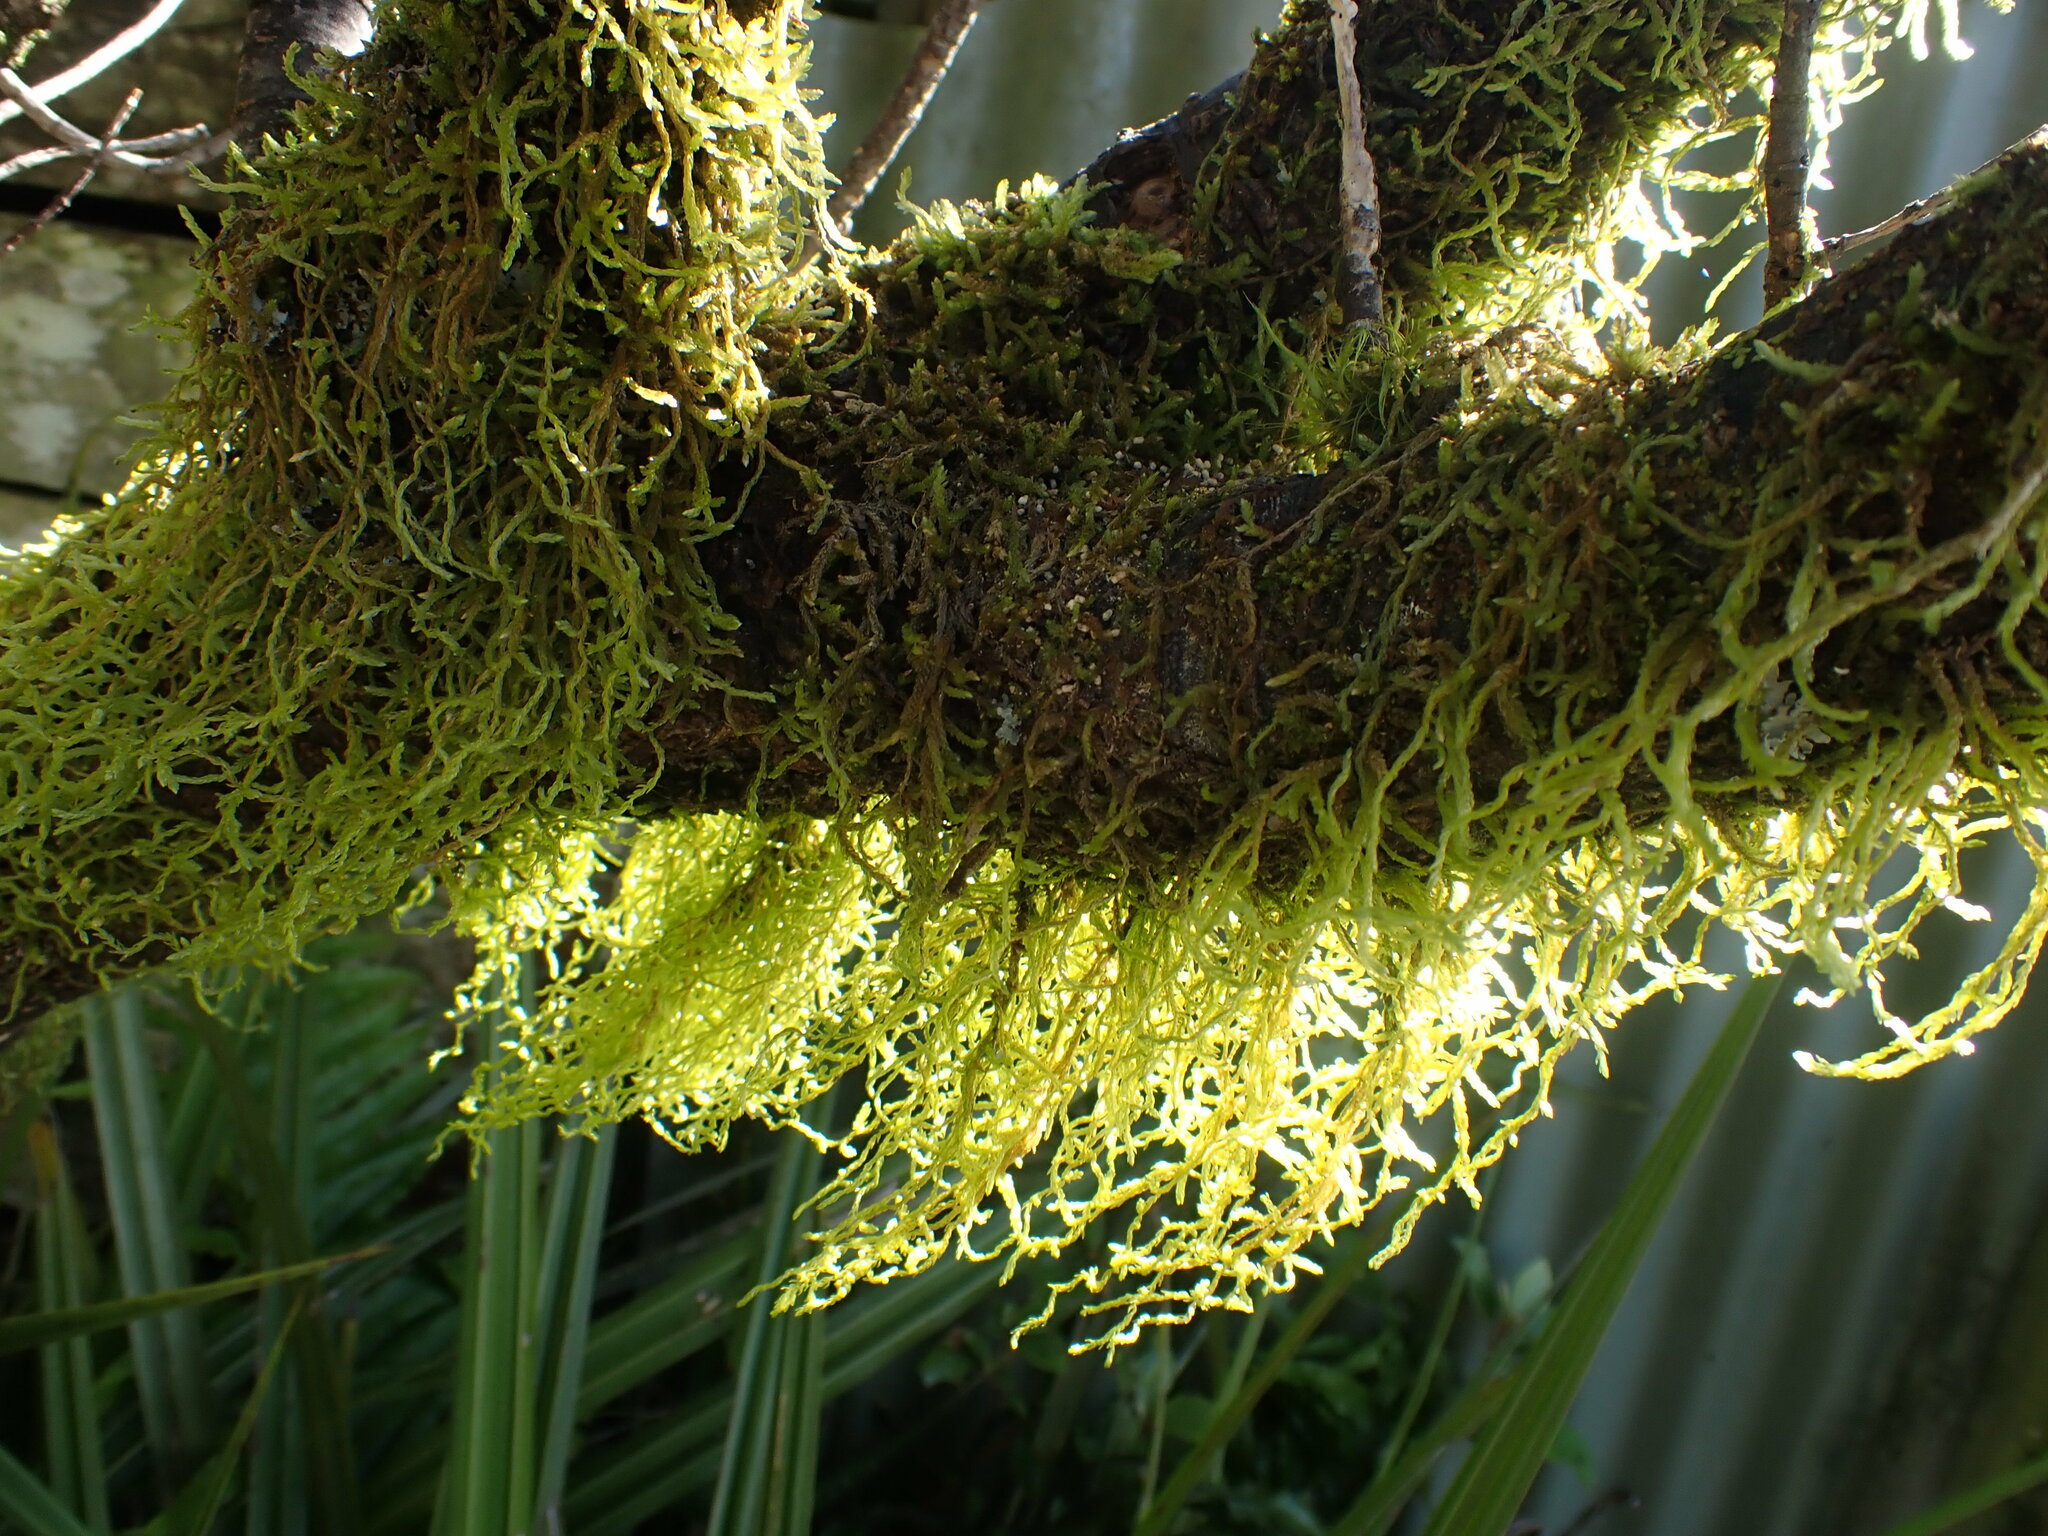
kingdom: Plantae
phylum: Bryophyta
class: Bryopsida
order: Hypnales
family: Lembophyllaceae
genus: Weymouthia
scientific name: Weymouthia mollis
